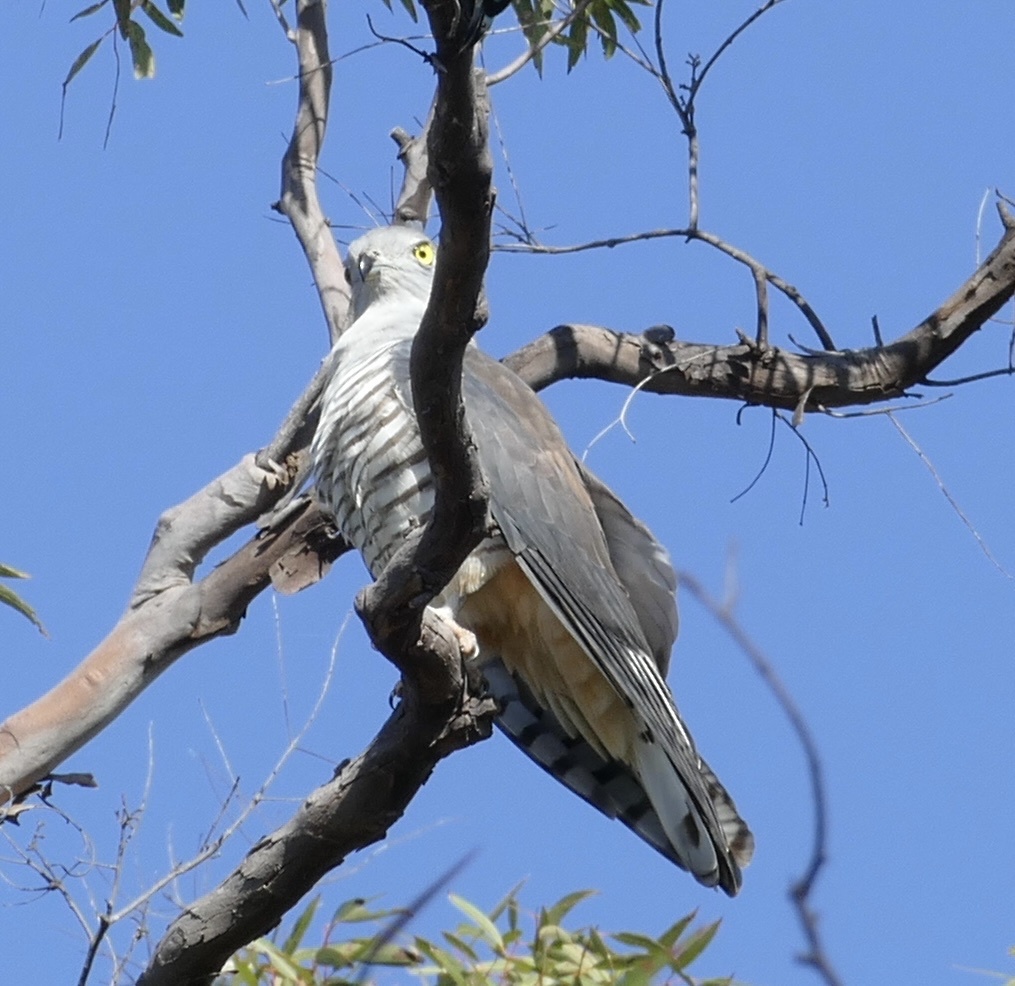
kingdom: Animalia
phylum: Chordata
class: Aves
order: Accipitriformes
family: Accipitridae
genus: Aviceda
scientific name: Aviceda subcristata
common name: Pacific baza
